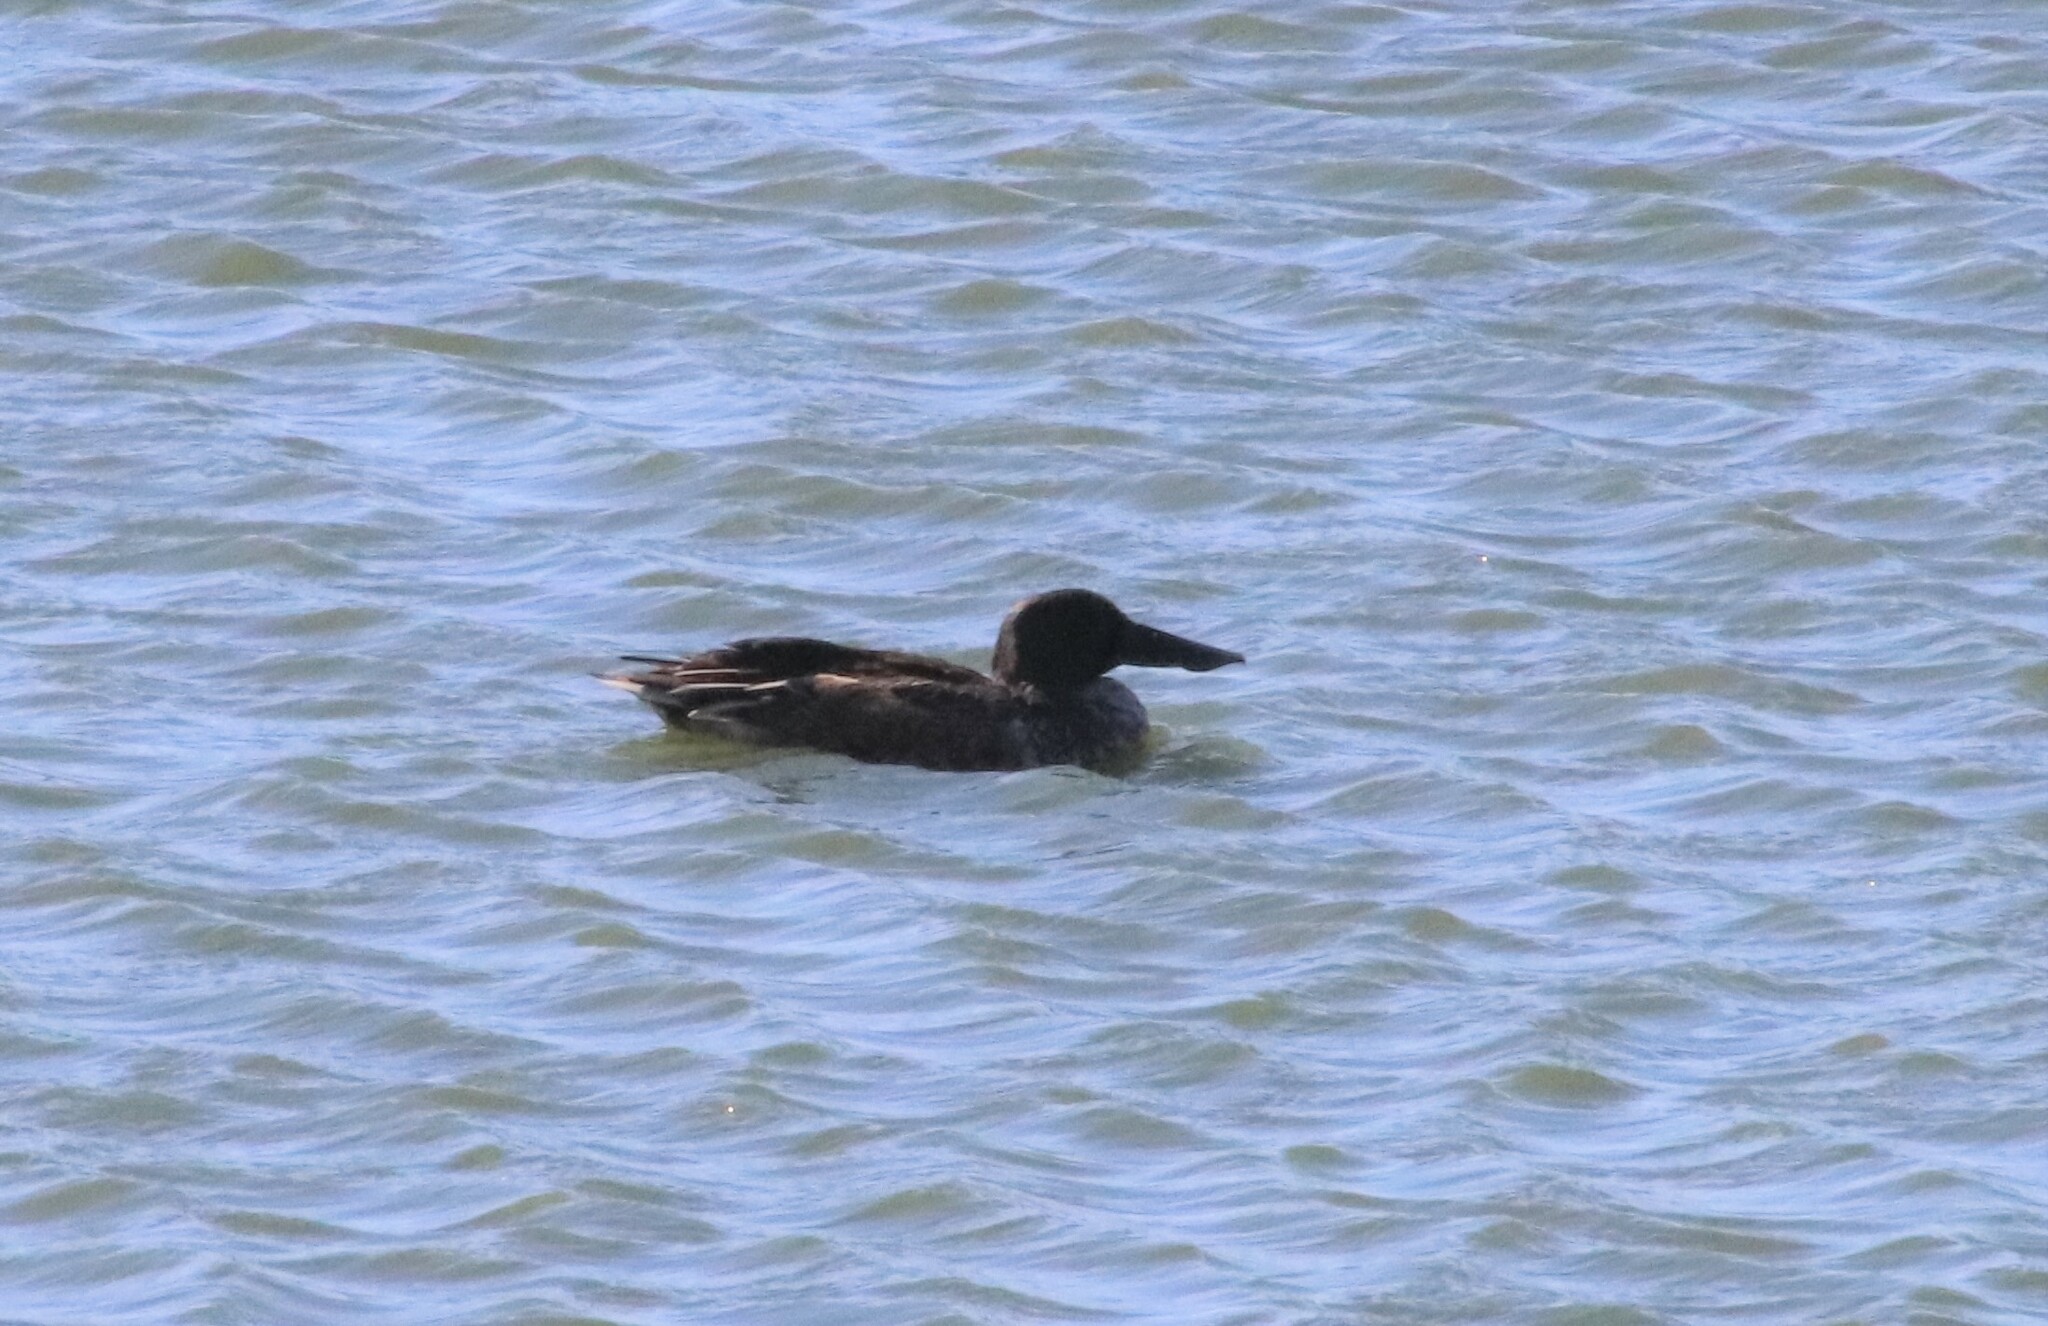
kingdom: Animalia
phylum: Chordata
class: Aves
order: Anseriformes
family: Anatidae
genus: Spatula
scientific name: Spatula clypeata
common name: Northern shoveler
